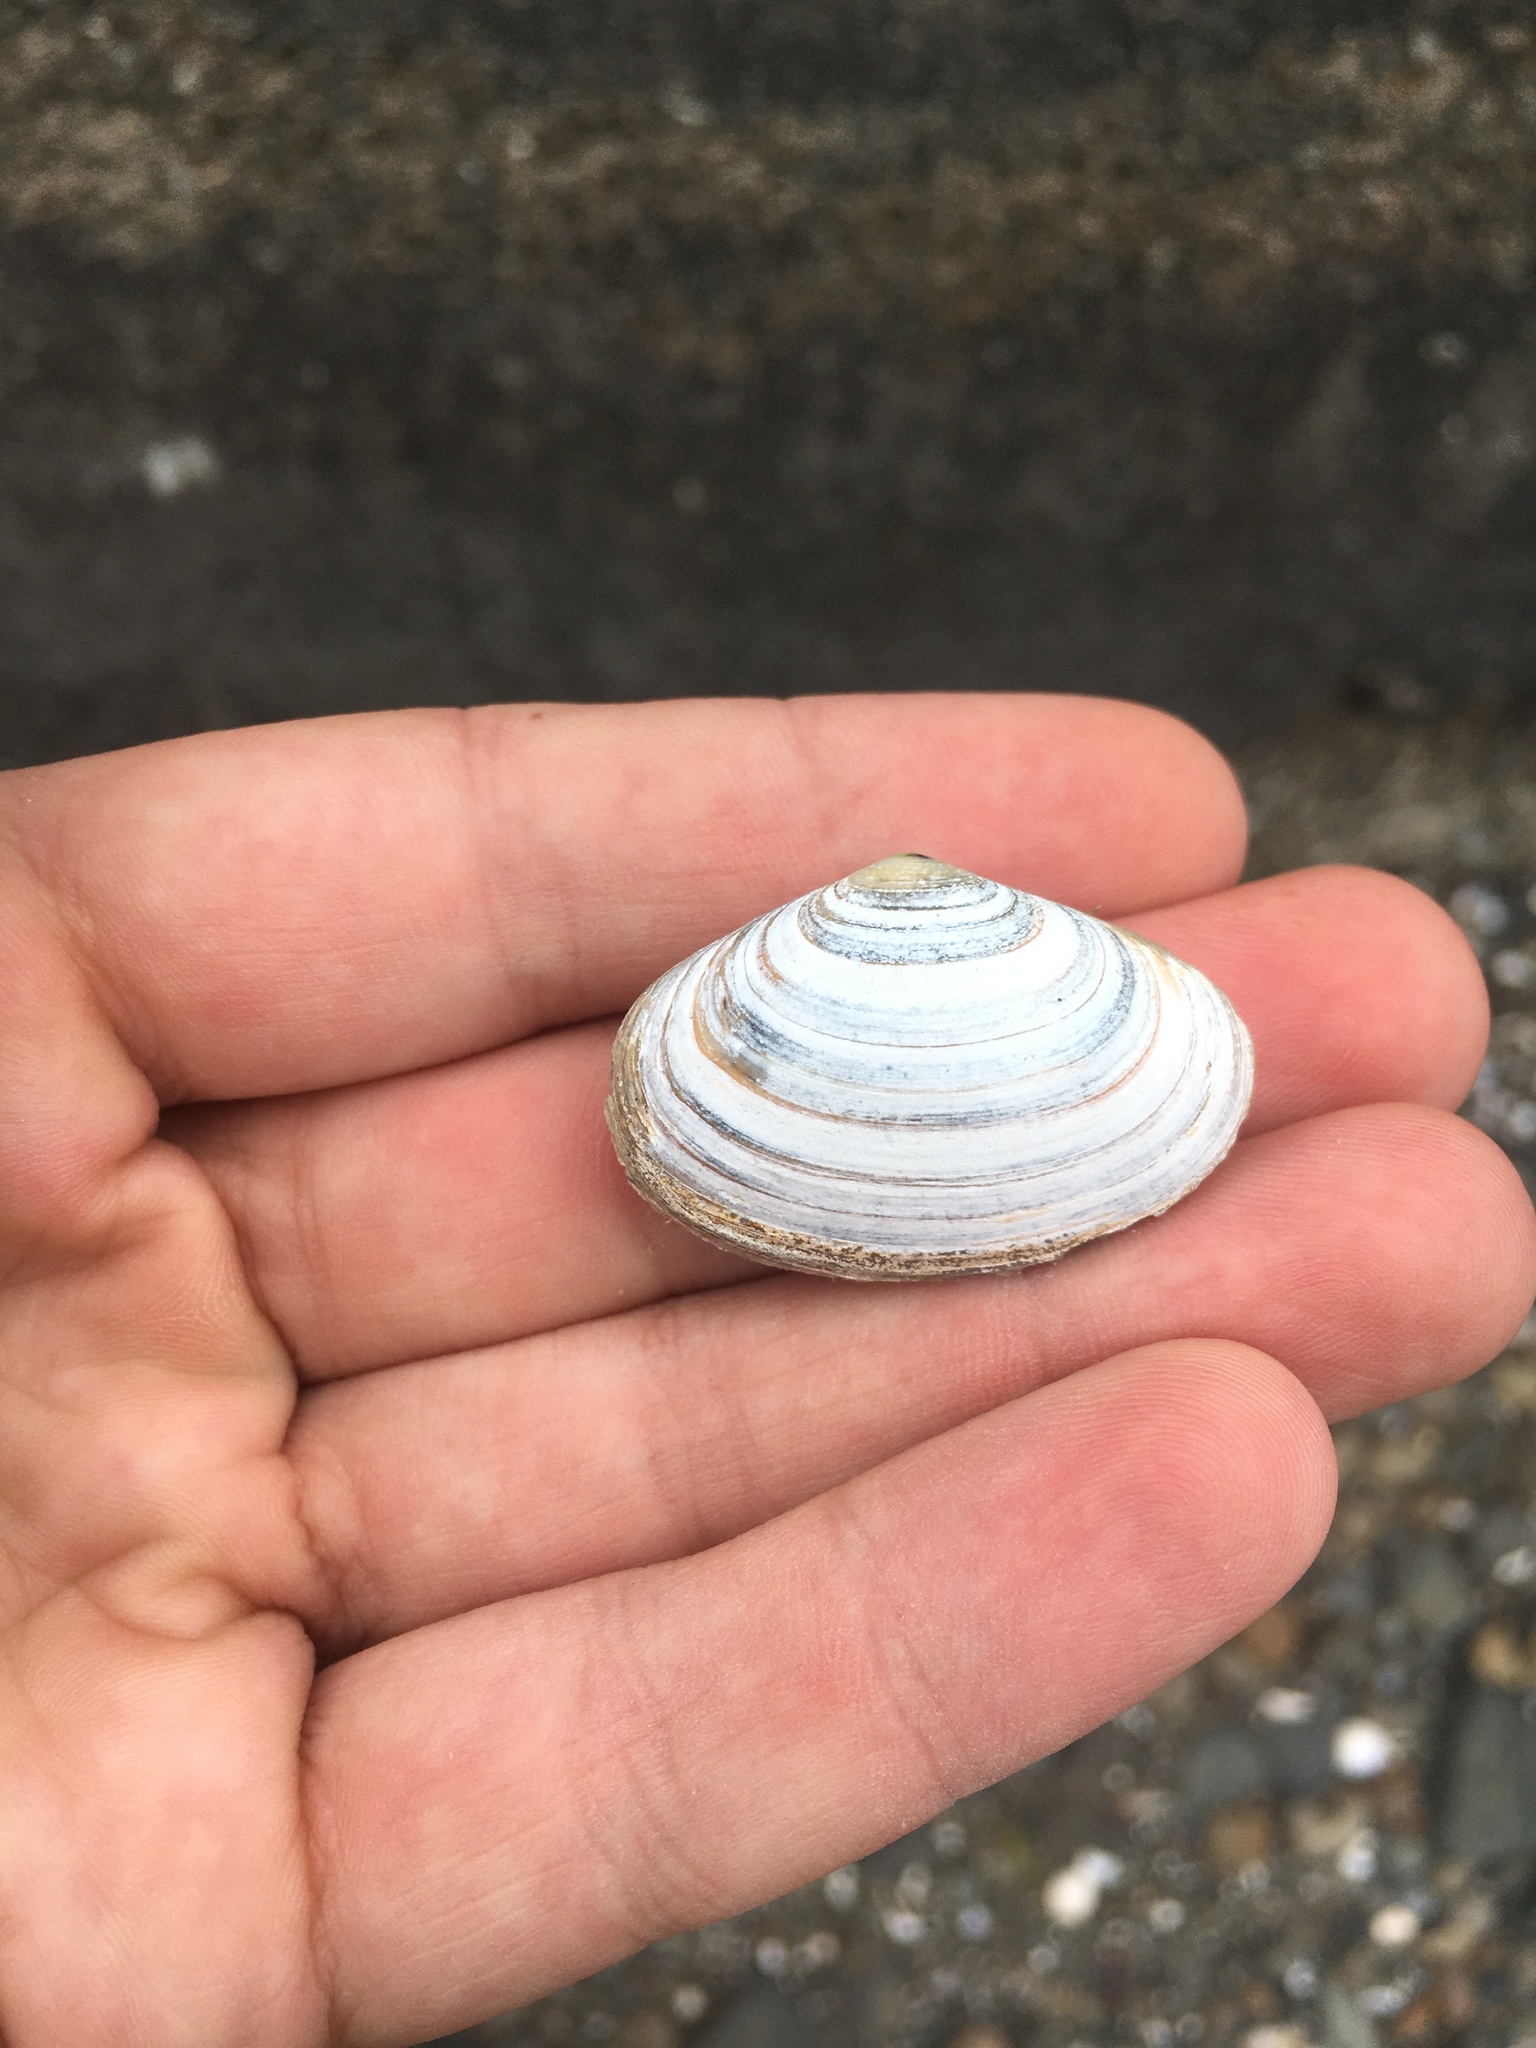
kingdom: Animalia
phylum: Mollusca
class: Bivalvia
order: Venerida
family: Mesodesmatidae
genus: Paphies
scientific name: Paphies australis
